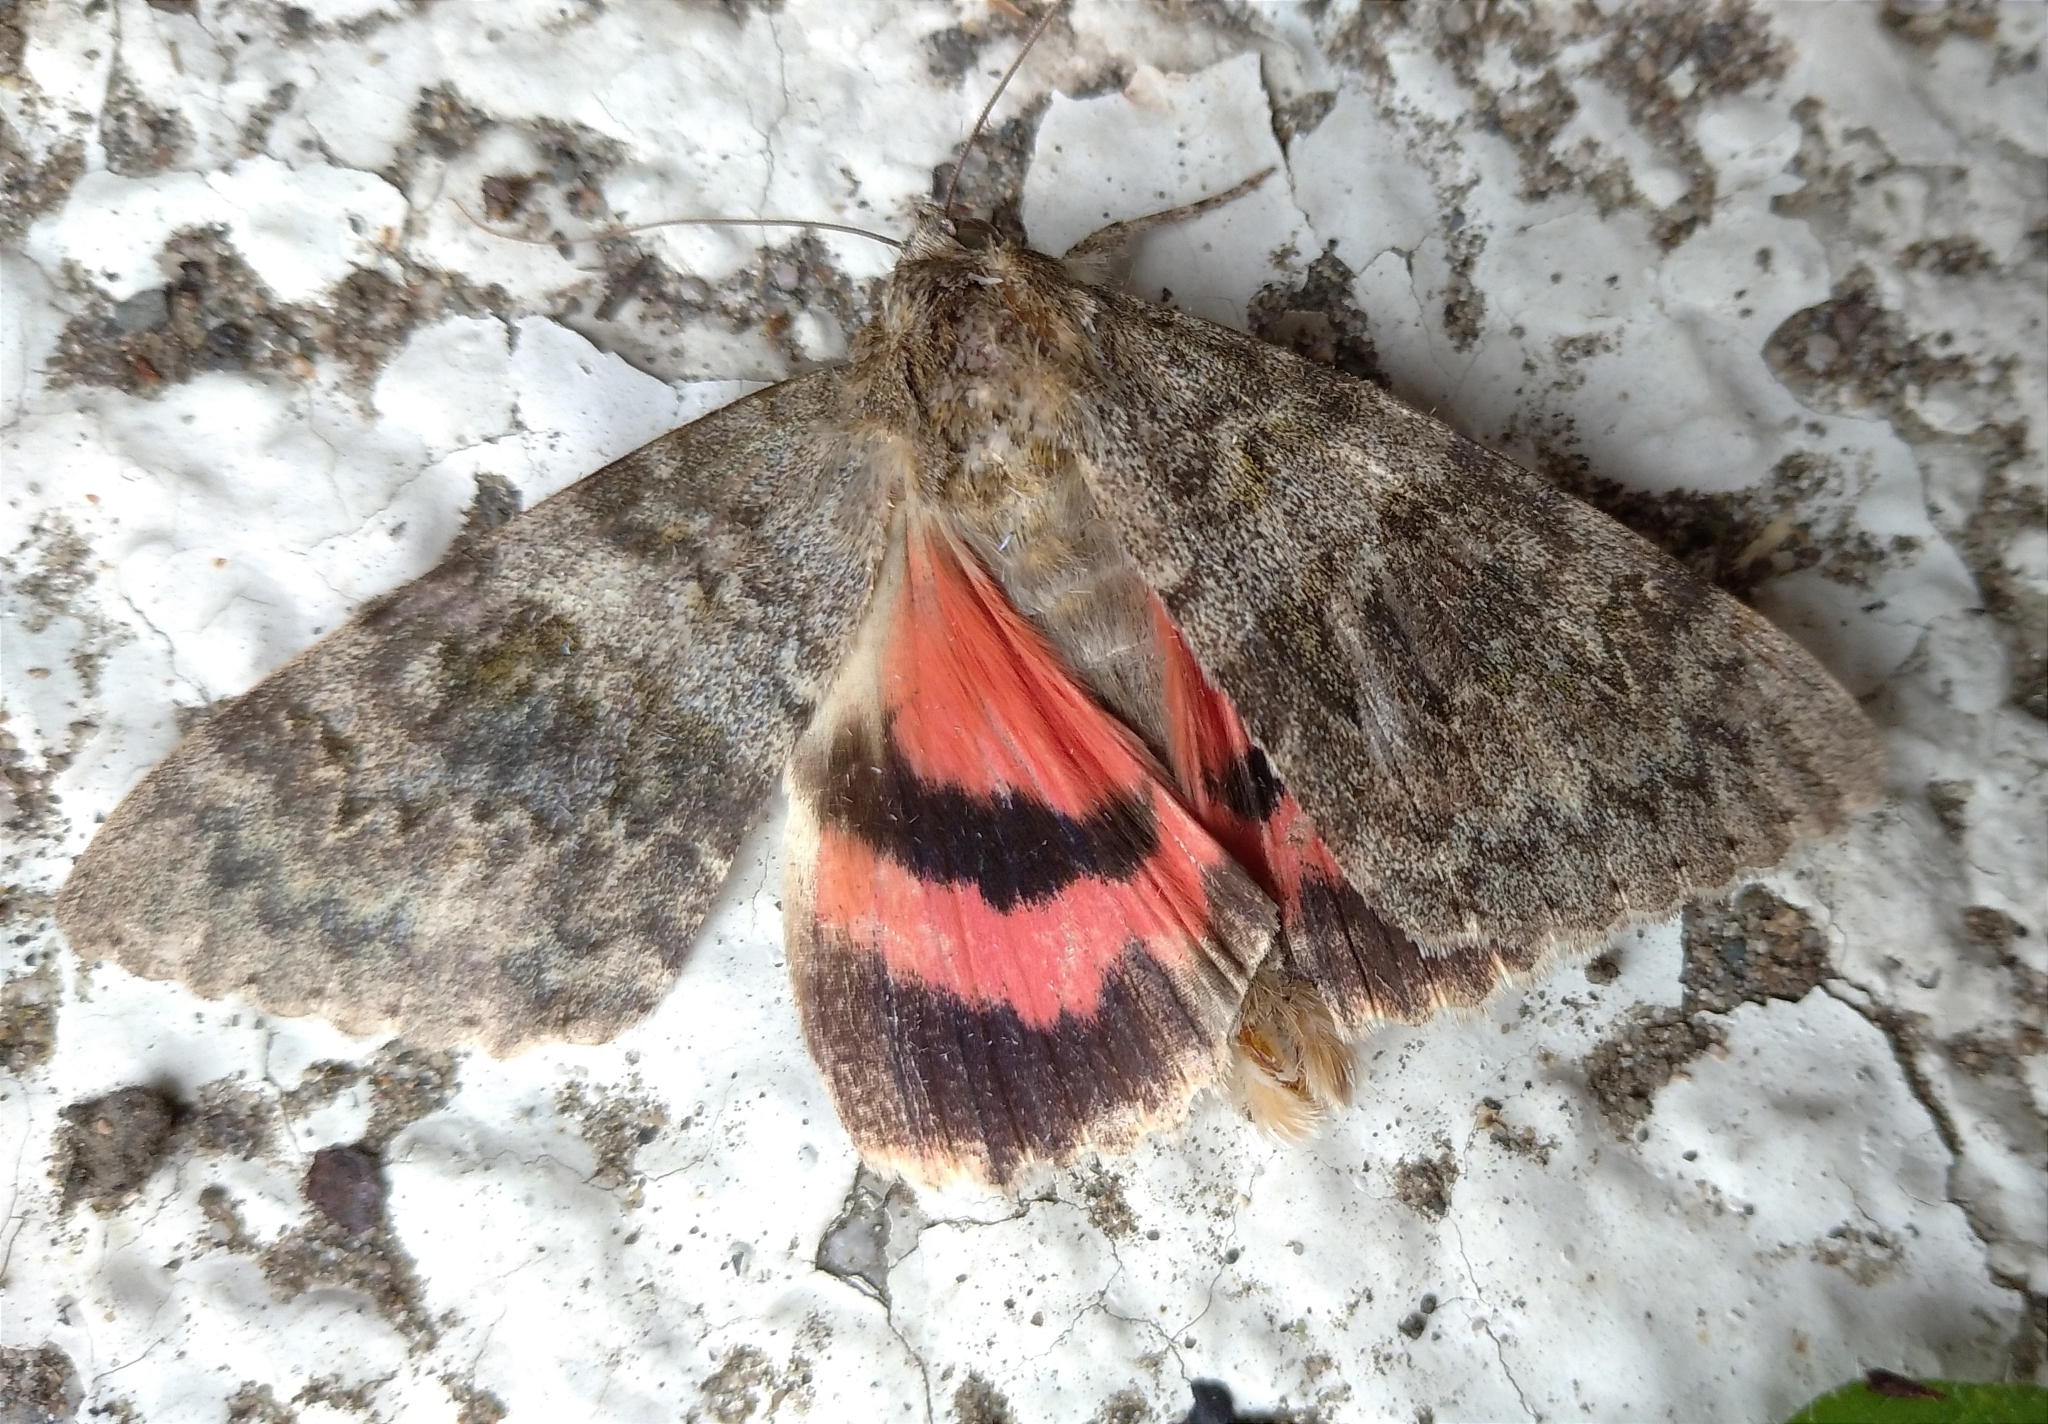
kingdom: Animalia
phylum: Arthropoda
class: Insecta
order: Lepidoptera
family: Erebidae
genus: Catocala
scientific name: Catocala elocata
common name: French red underwing
